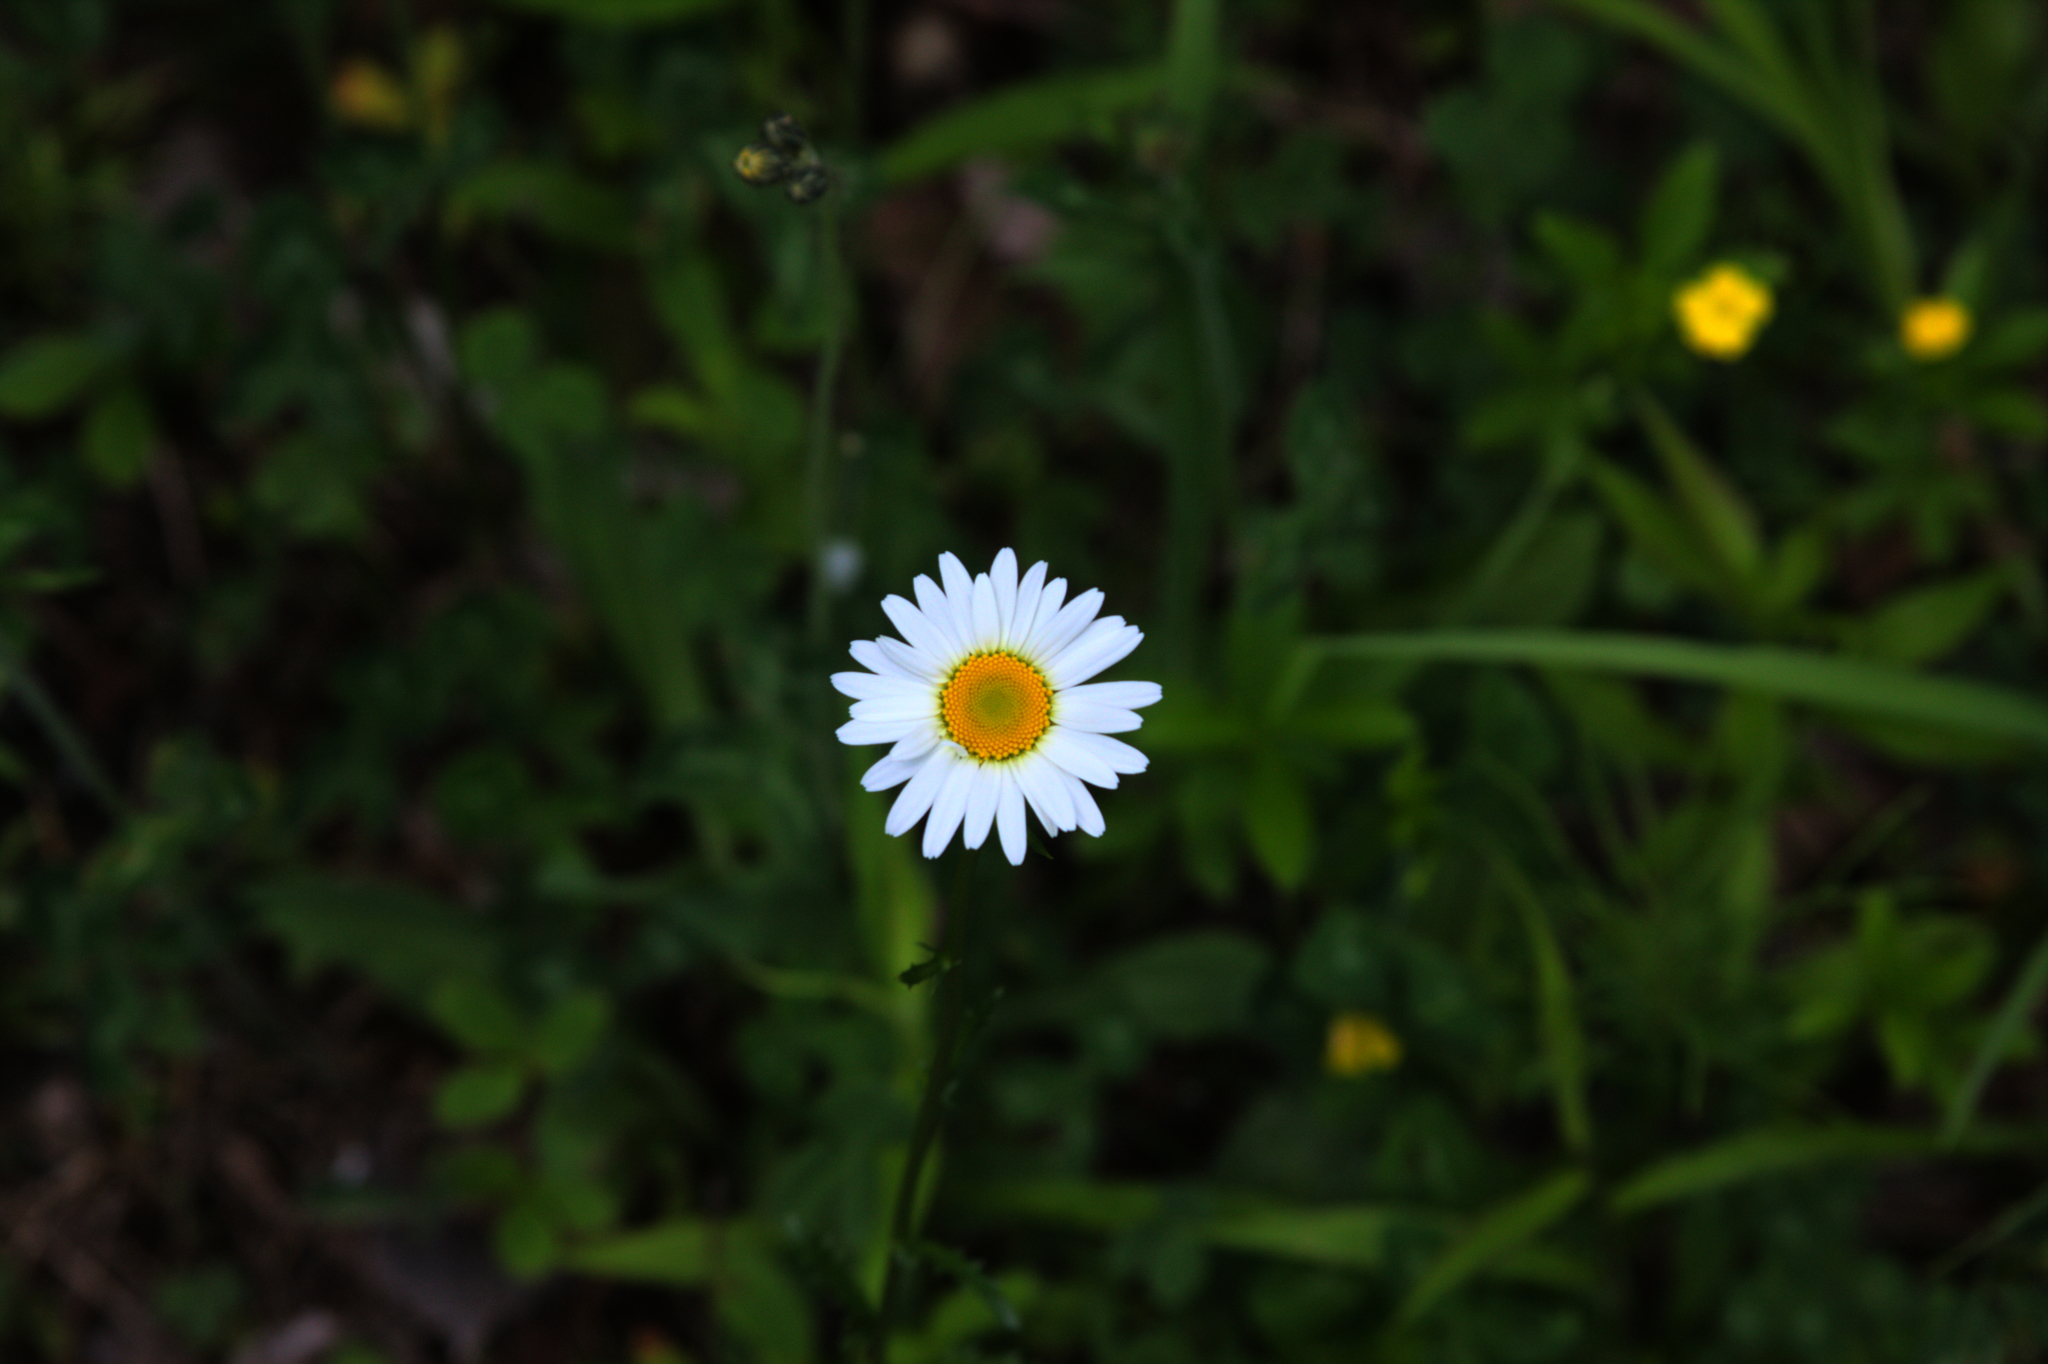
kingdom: Plantae
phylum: Tracheophyta
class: Magnoliopsida
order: Asterales
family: Asteraceae
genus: Leucanthemum
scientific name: Leucanthemum vulgare
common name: Oxeye daisy
